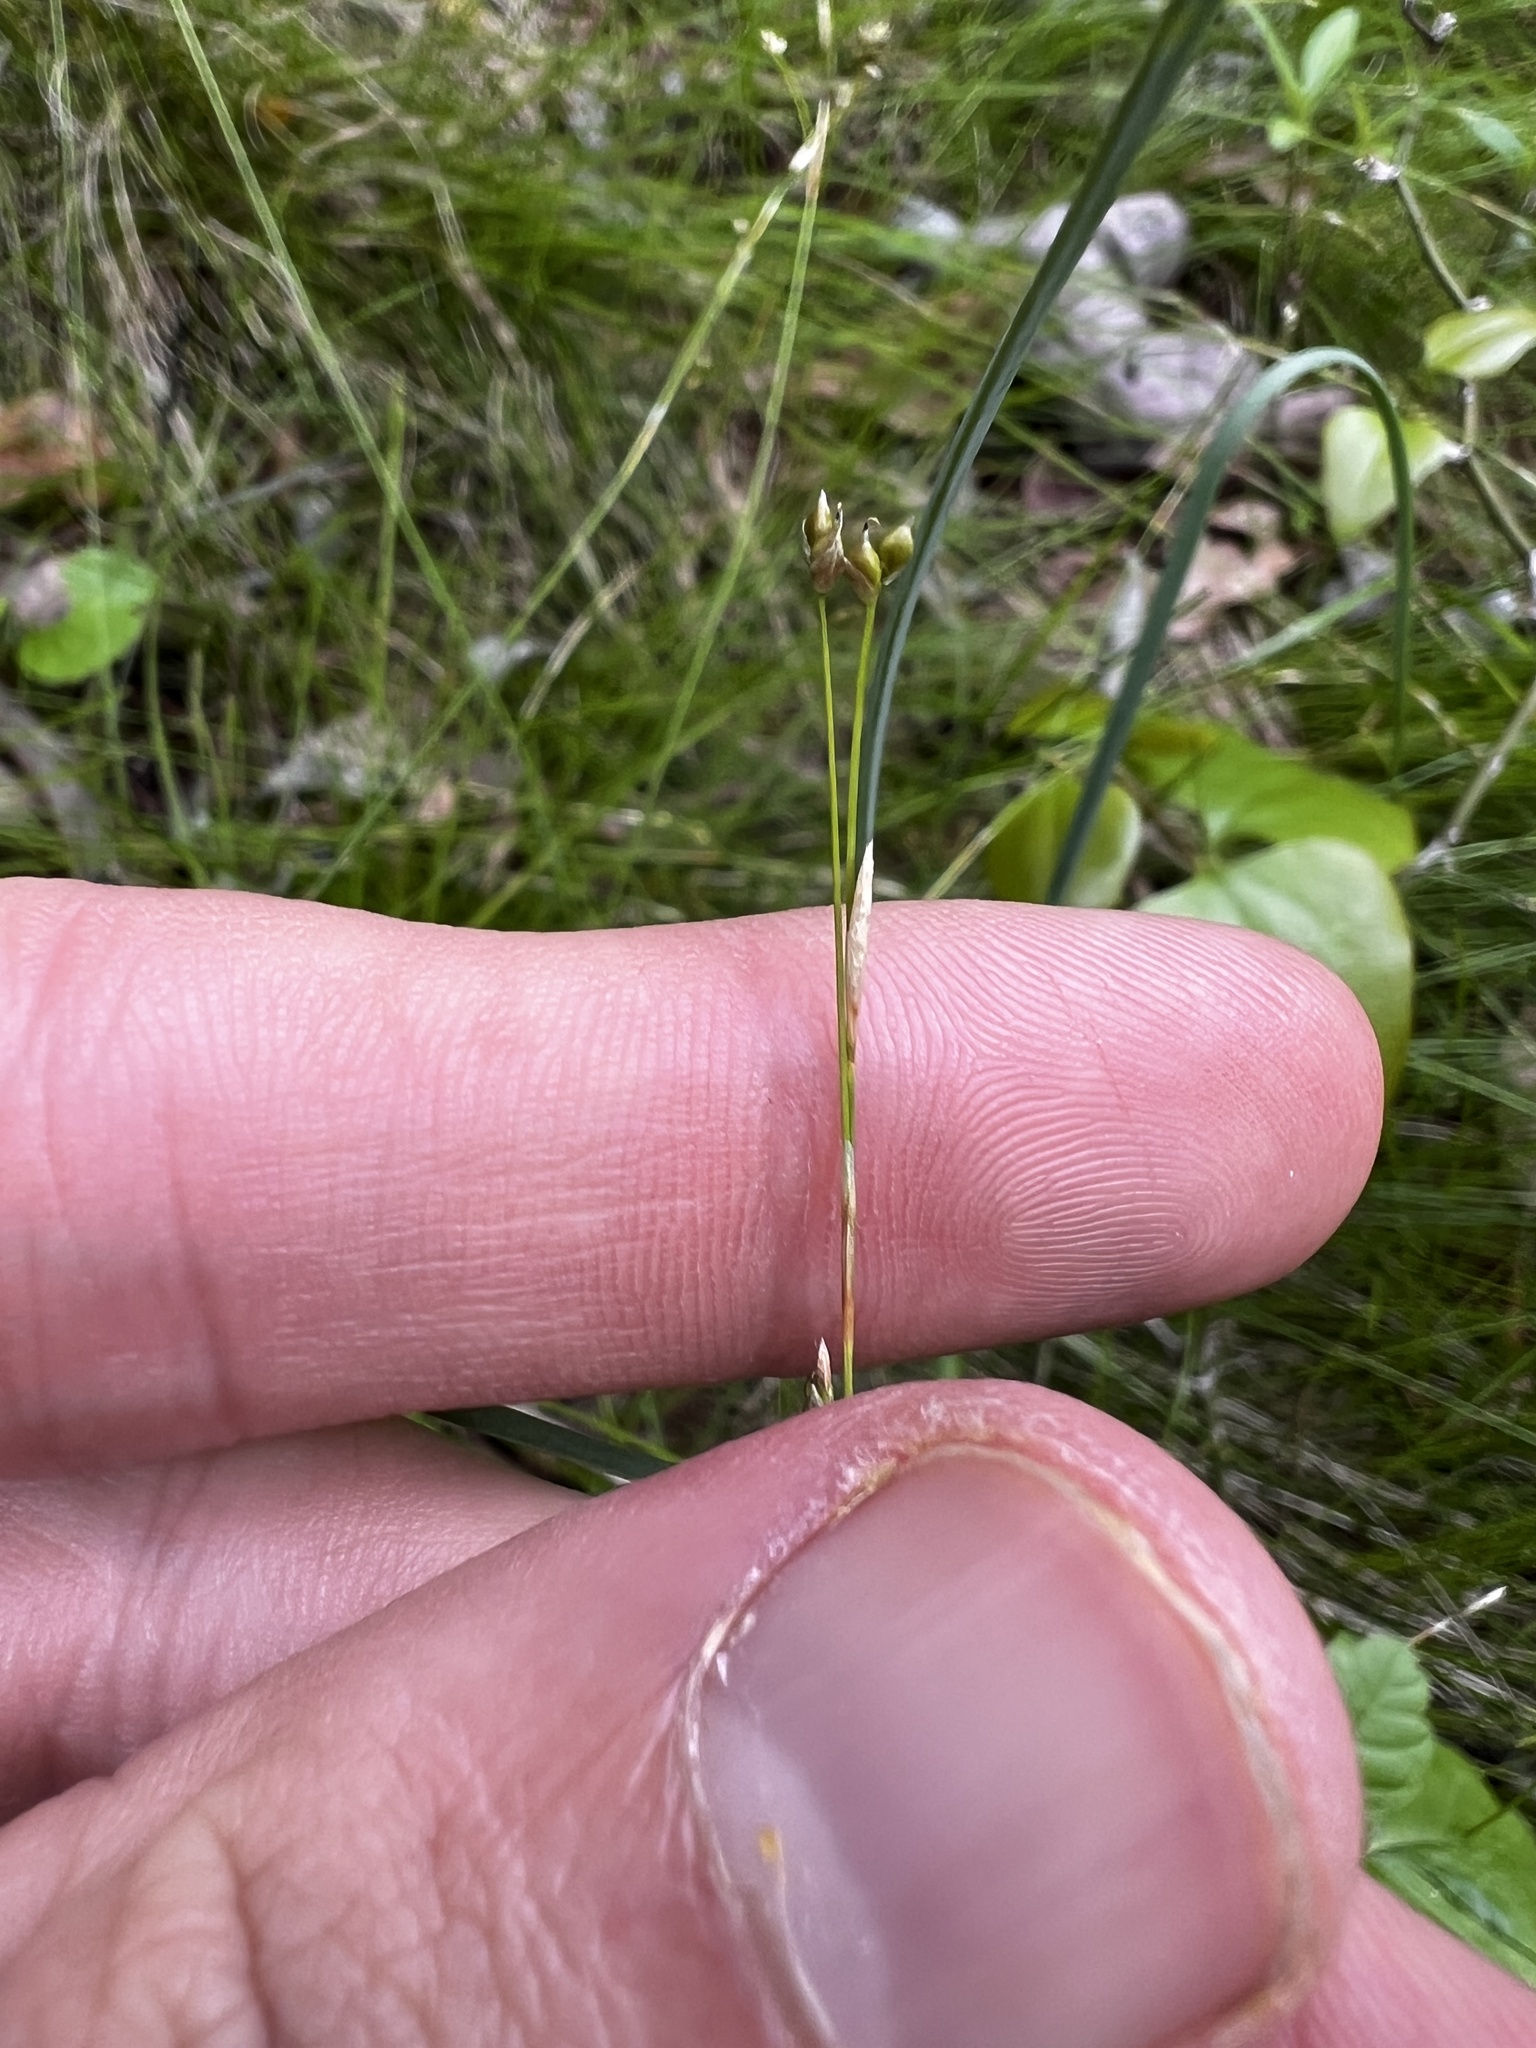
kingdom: Plantae
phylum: Tracheophyta
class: Liliopsida
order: Poales
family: Cyperaceae
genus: Carex
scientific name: Carex eburnea
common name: Bristle-leaved sedge
